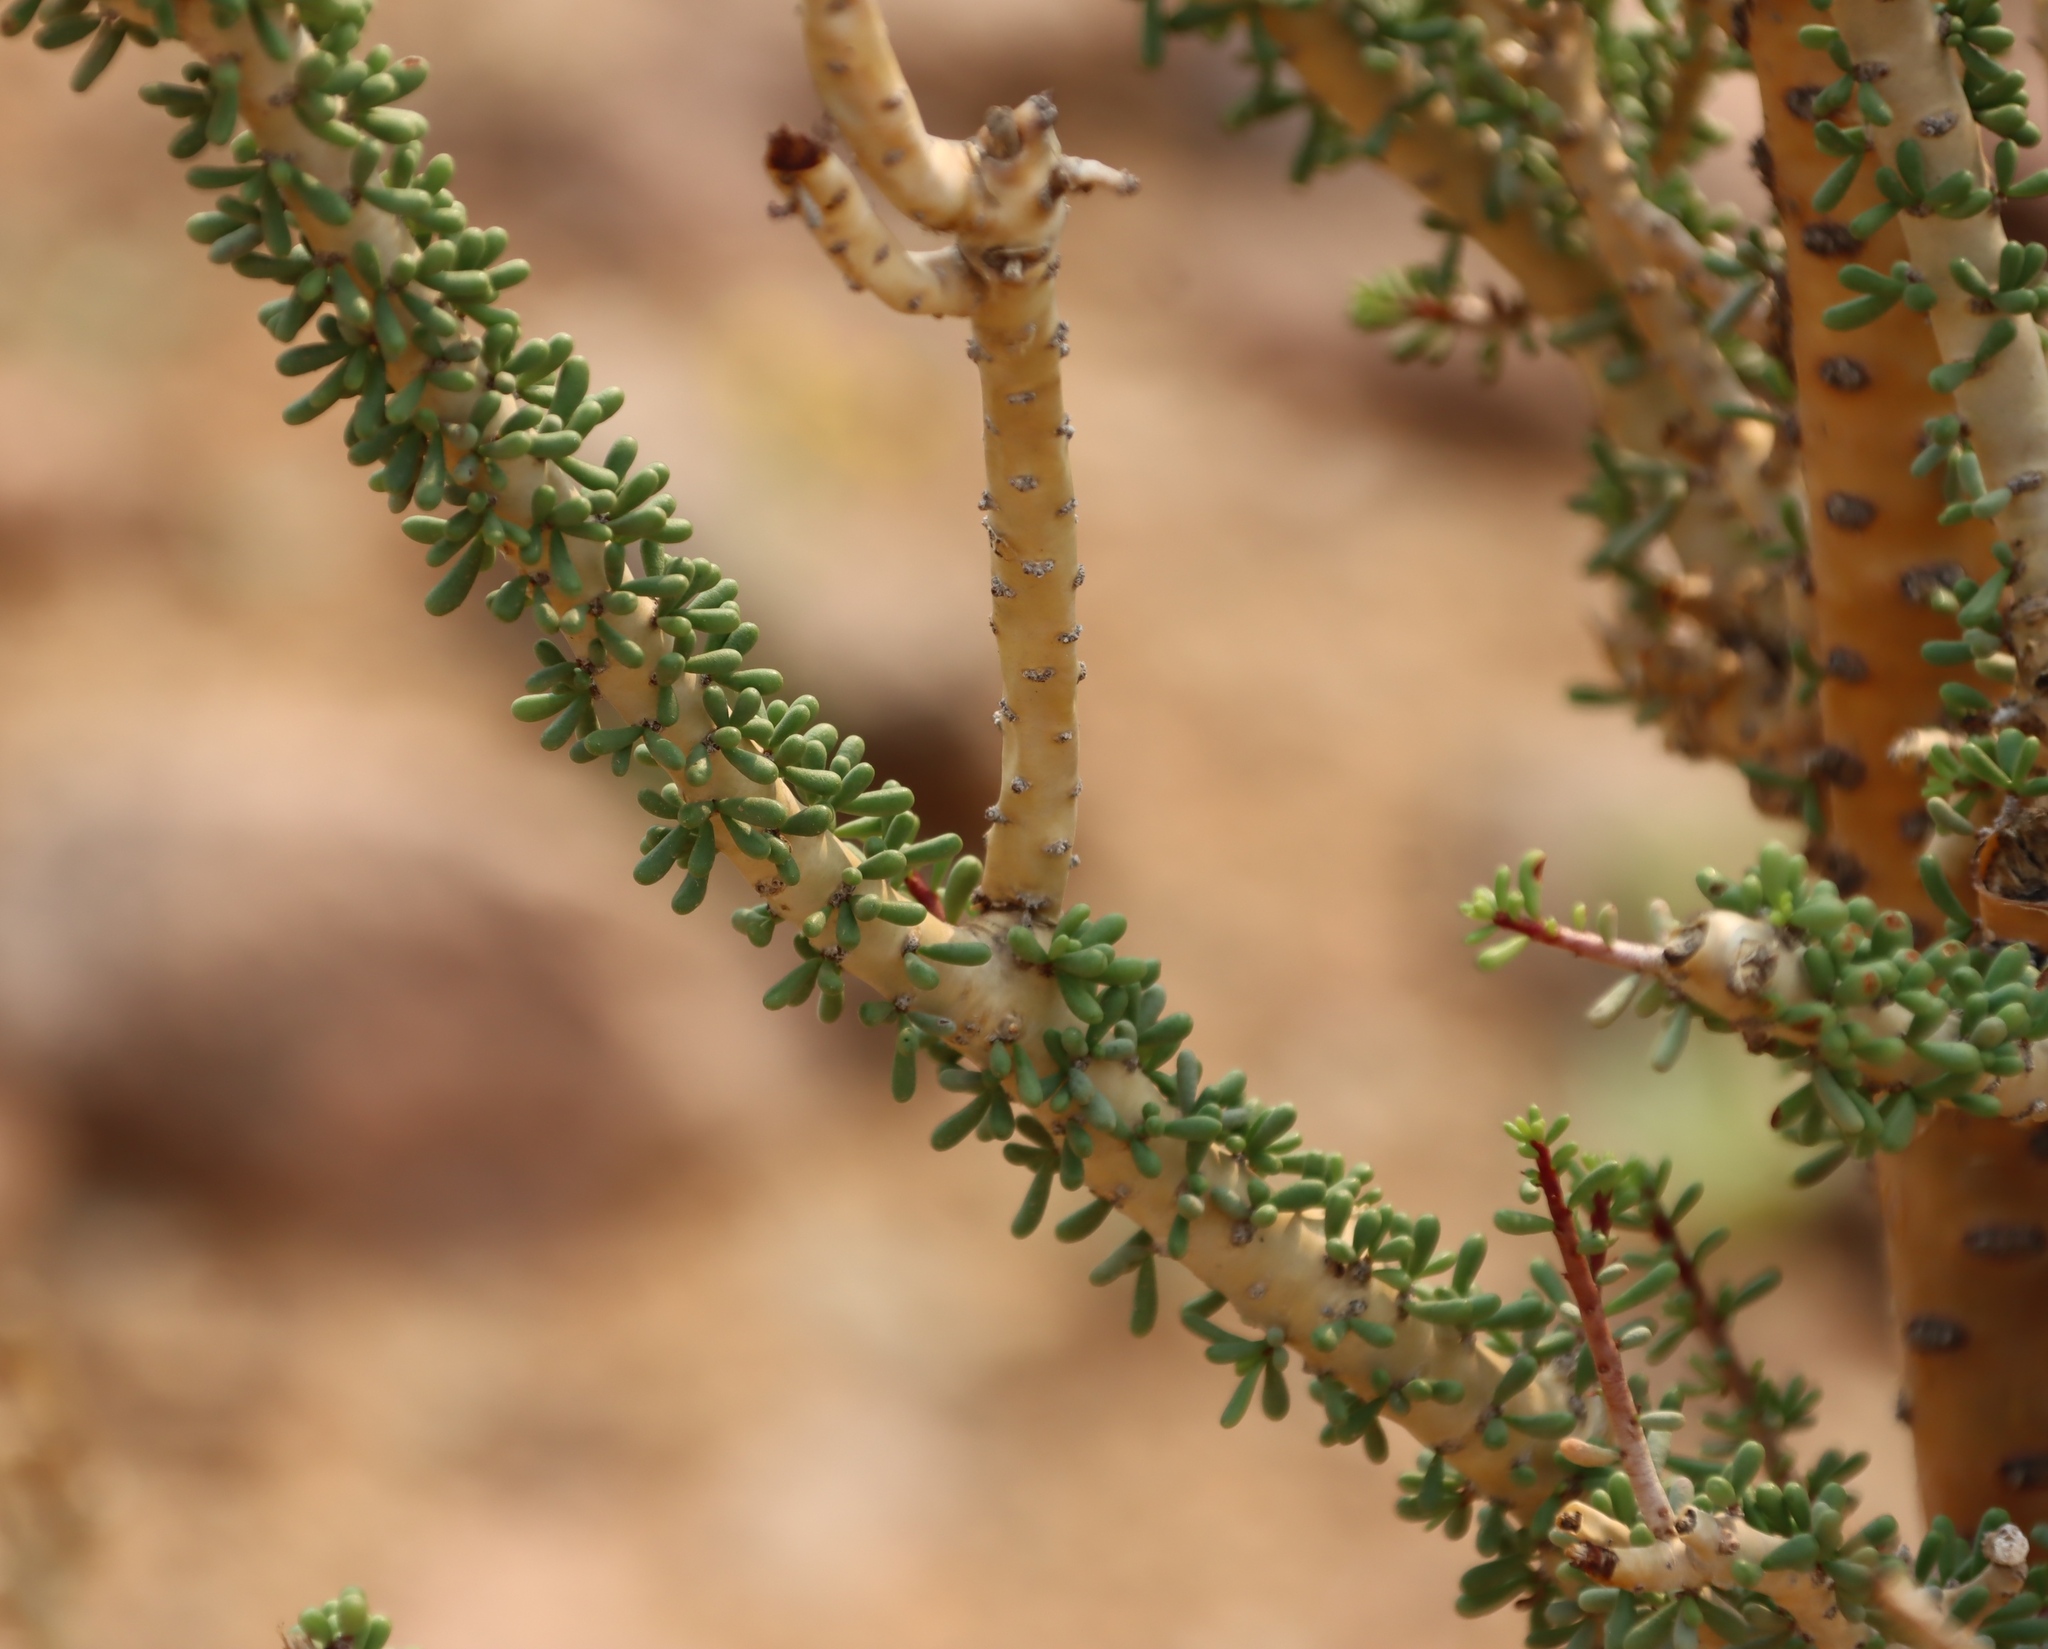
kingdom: Plantae
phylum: Tracheophyta
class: Magnoliopsida
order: Caryophyllales
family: Didiereaceae
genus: Portulacaria
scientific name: Portulacaria namaquensis
